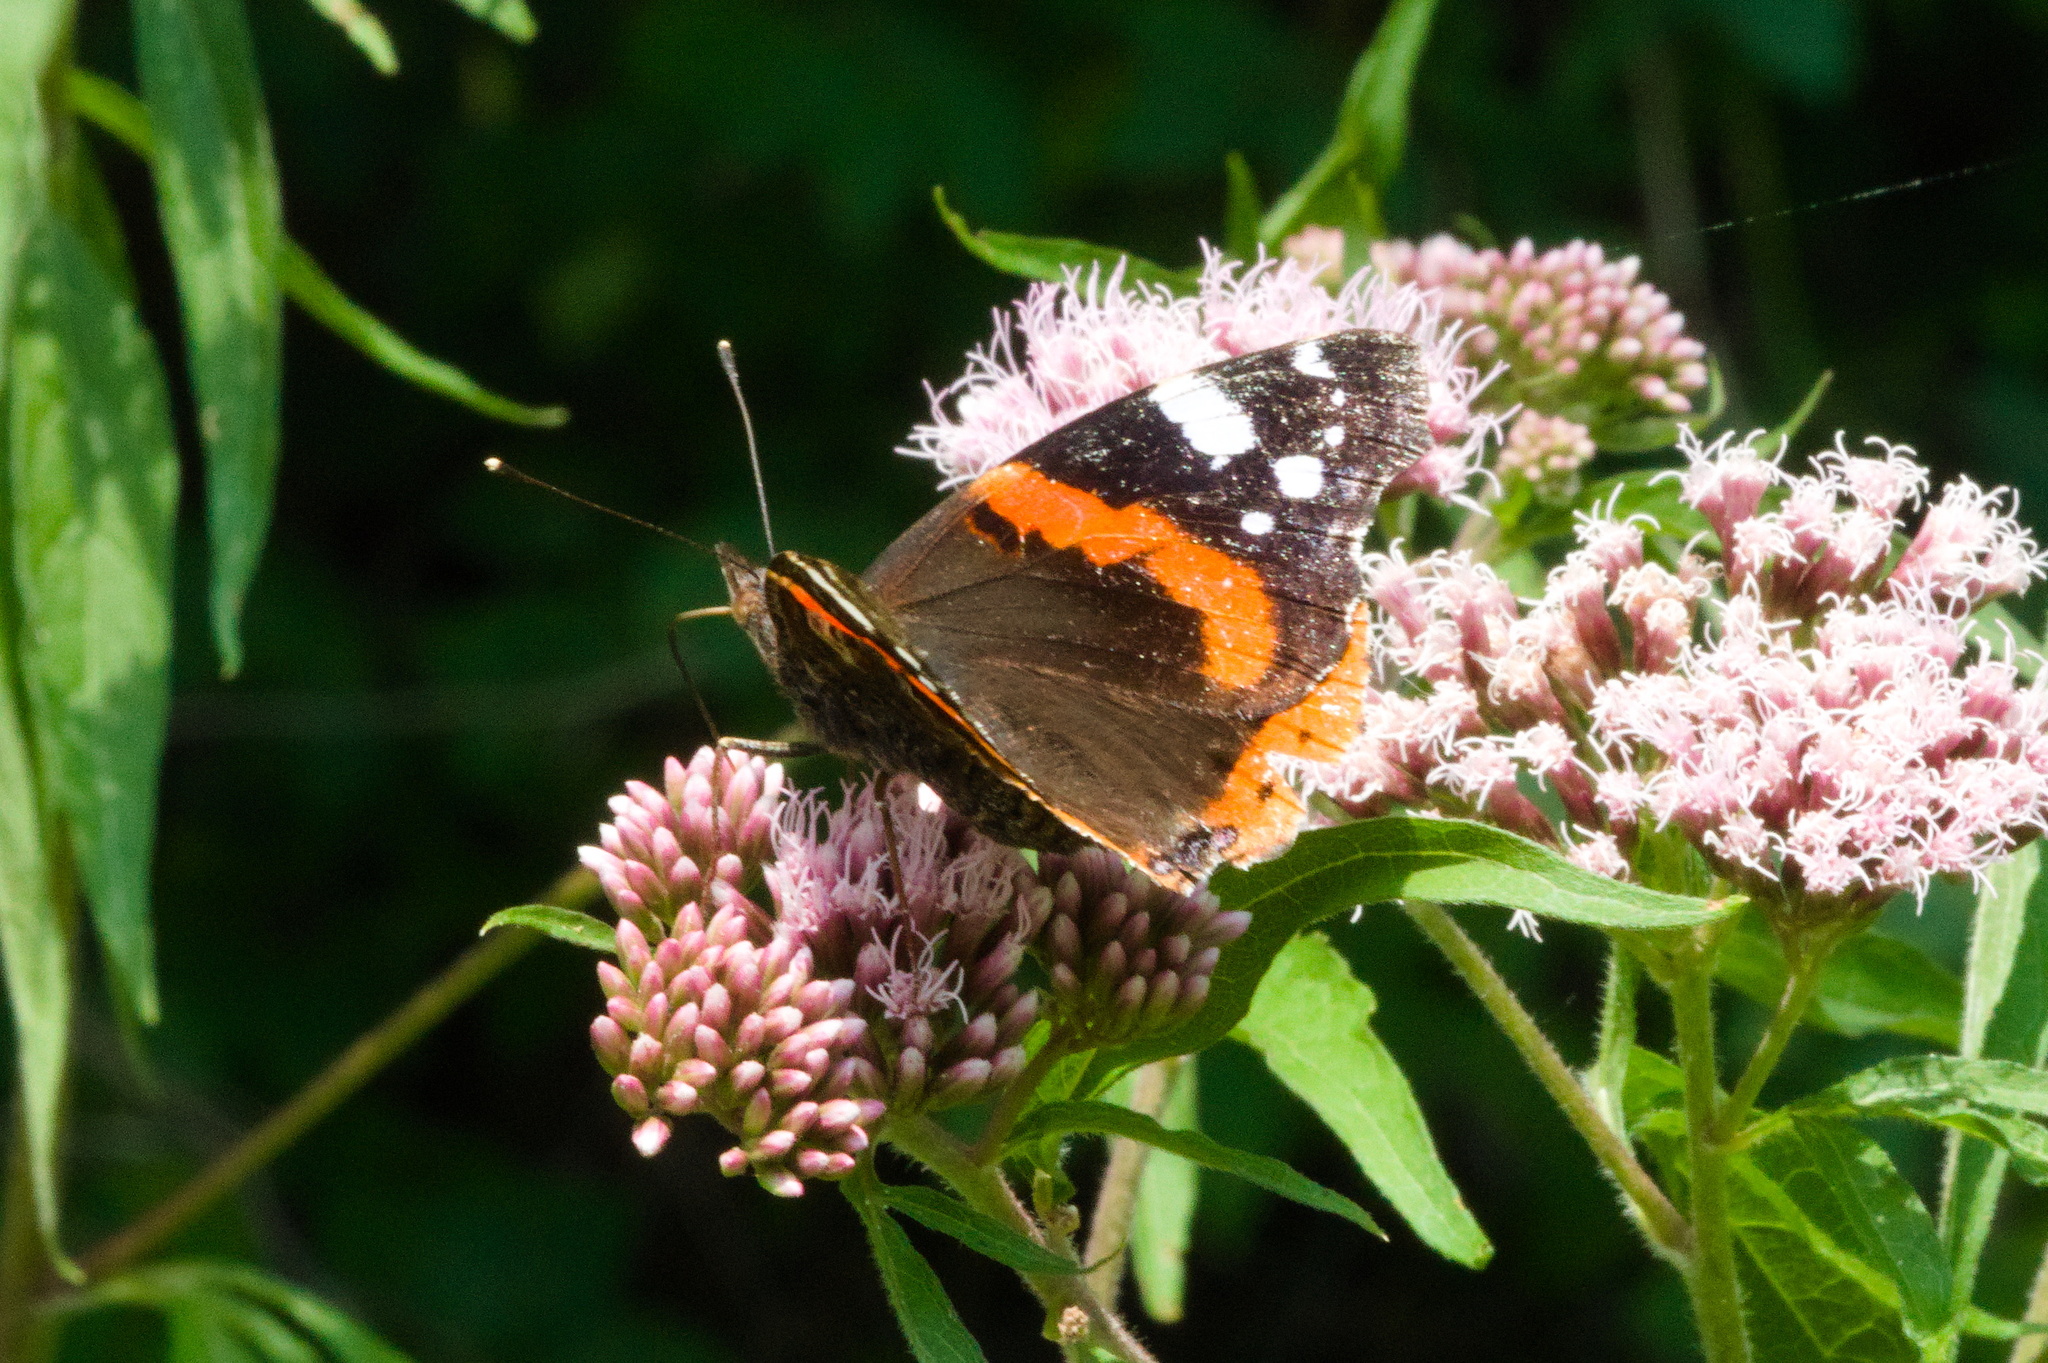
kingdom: Animalia
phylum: Arthropoda
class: Insecta
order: Lepidoptera
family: Nymphalidae
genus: Vanessa
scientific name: Vanessa atalanta
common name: Red admiral
